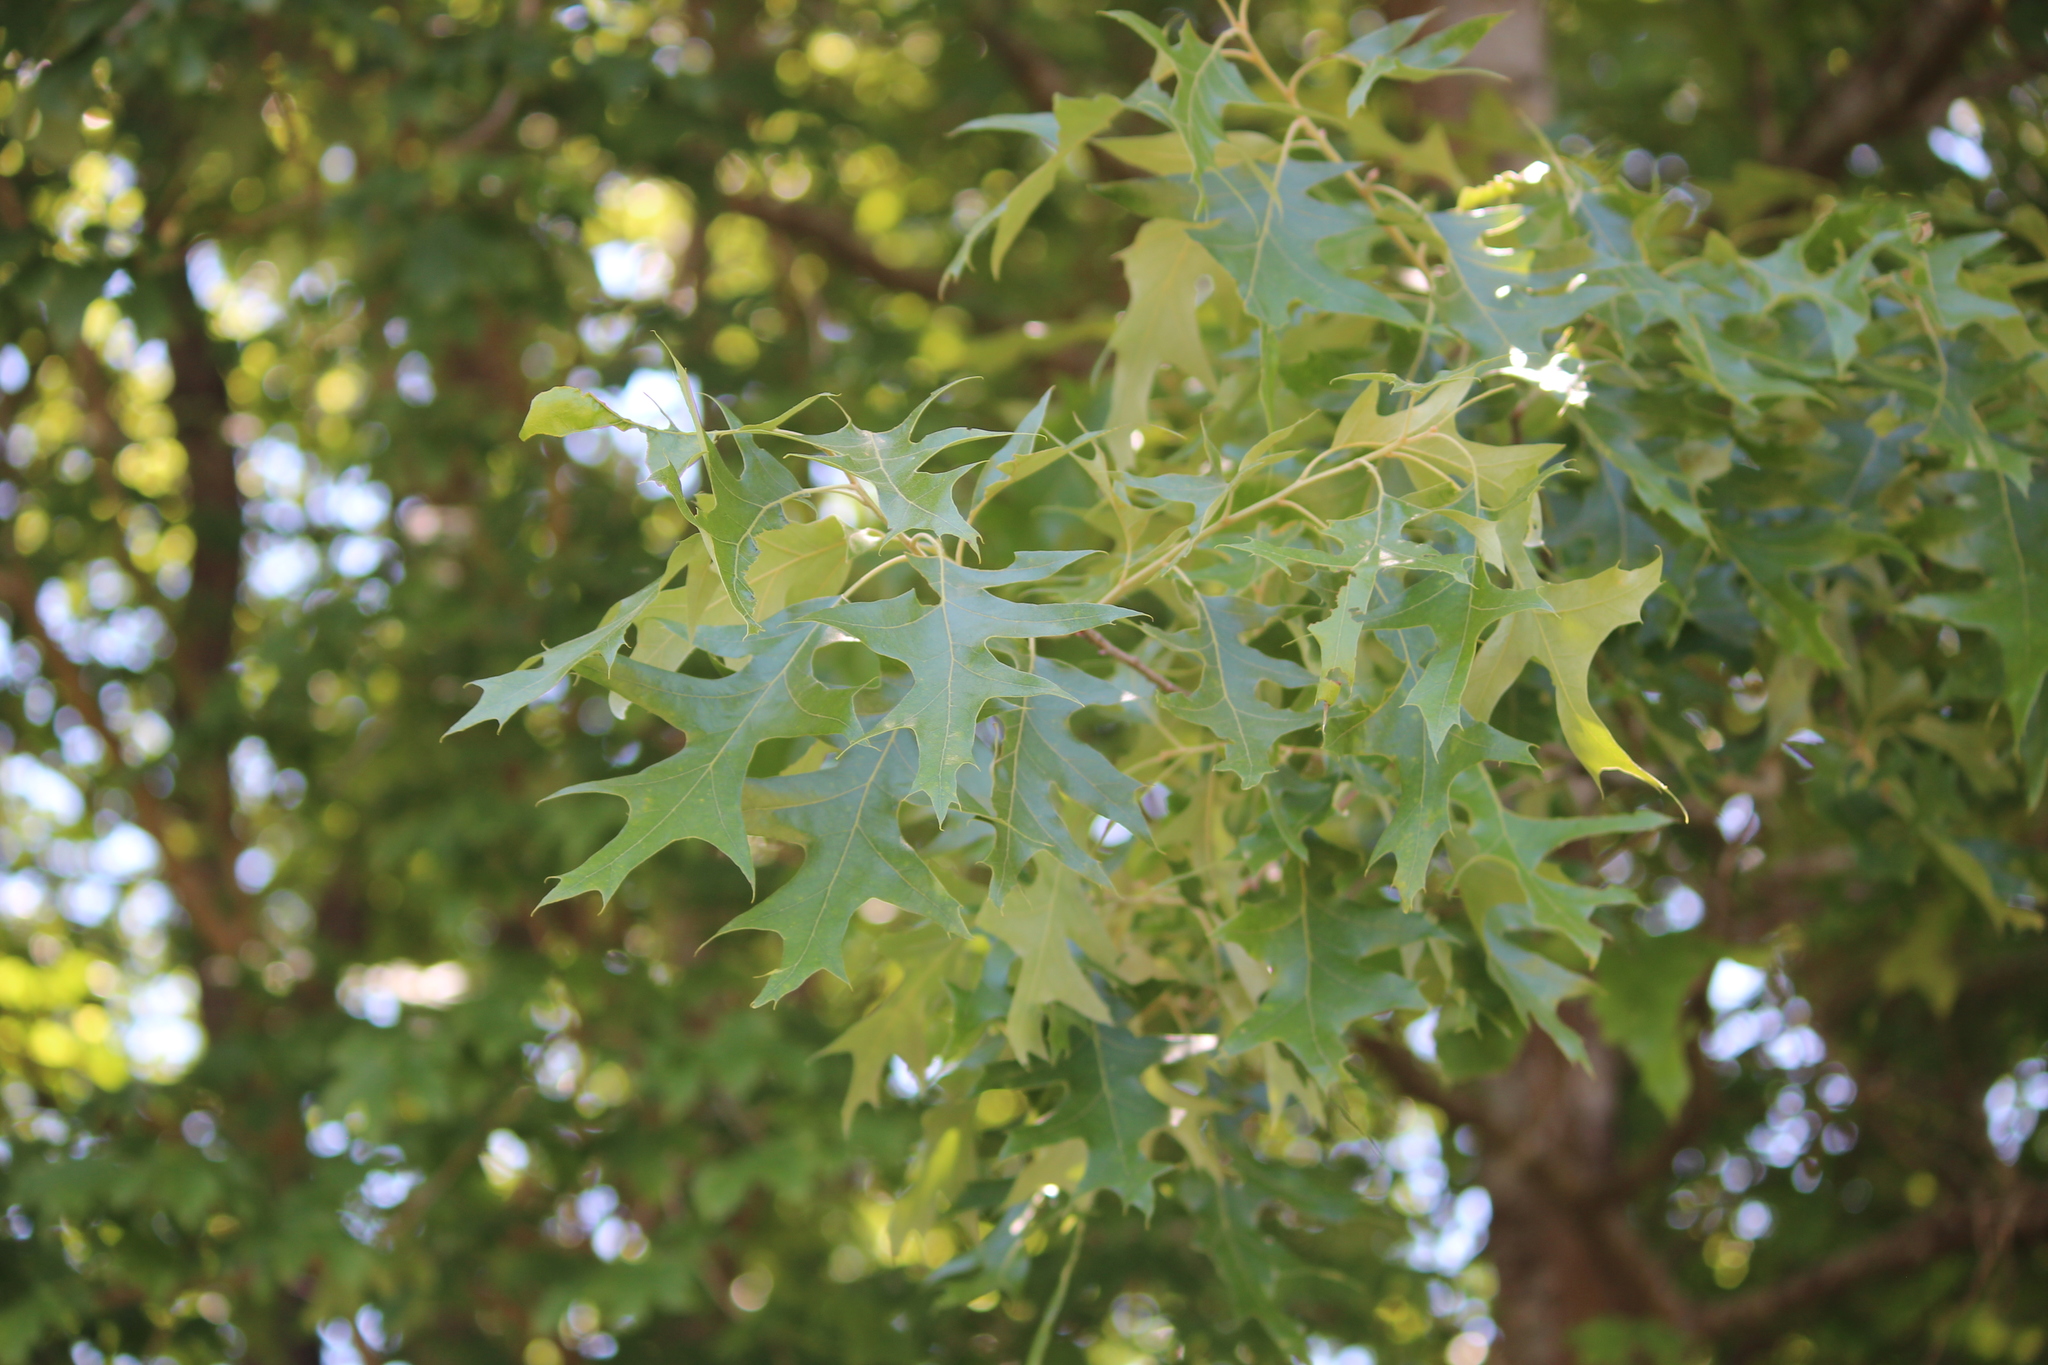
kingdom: Plantae
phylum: Tracheophyta
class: Magnoliopsida
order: Fagales
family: Fagaceae
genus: Quercus
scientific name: Quercus pagoda
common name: Cherrybark oak
